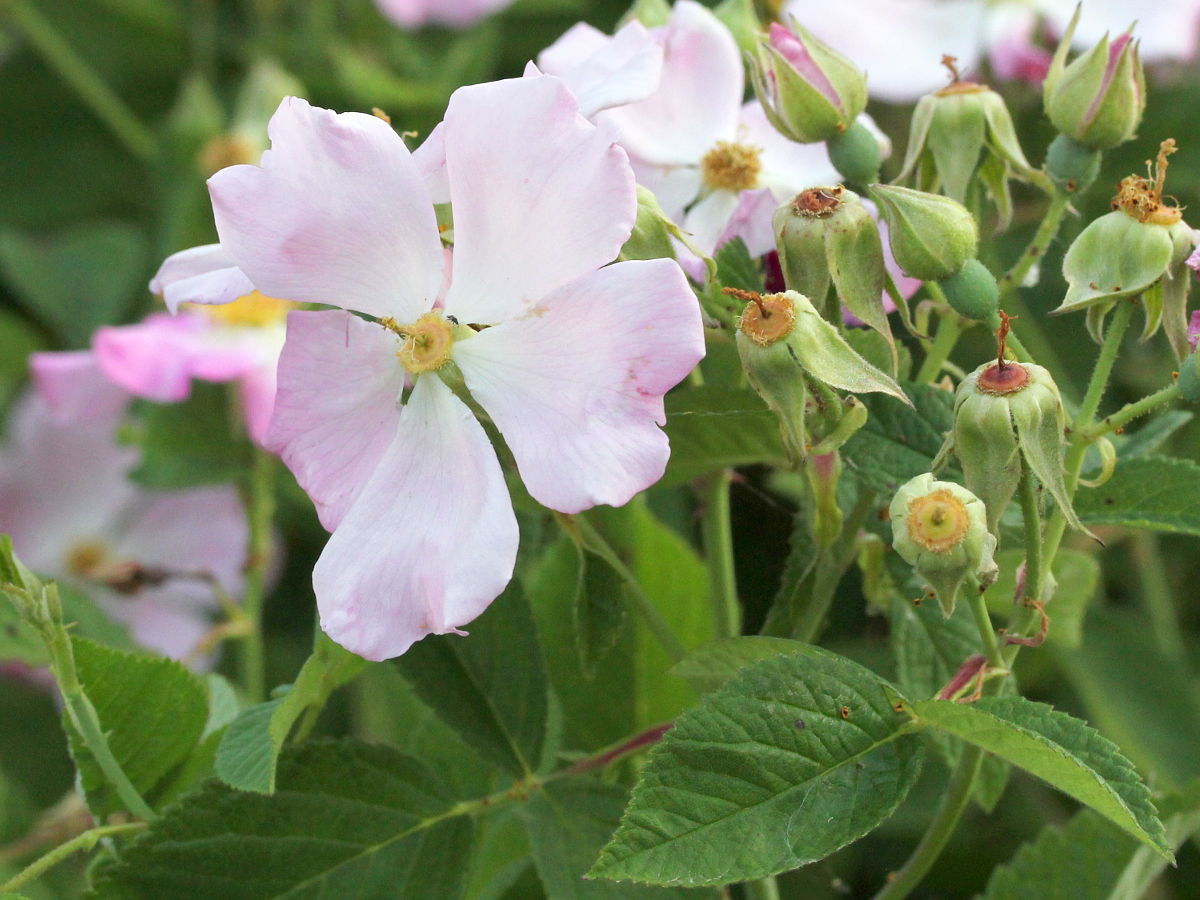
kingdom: Plantae
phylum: Tracheophyta
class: Magnoliopsida
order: Rosales
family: Rosaceae
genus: Rosa
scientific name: Rosa setigera
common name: Prairie rose
